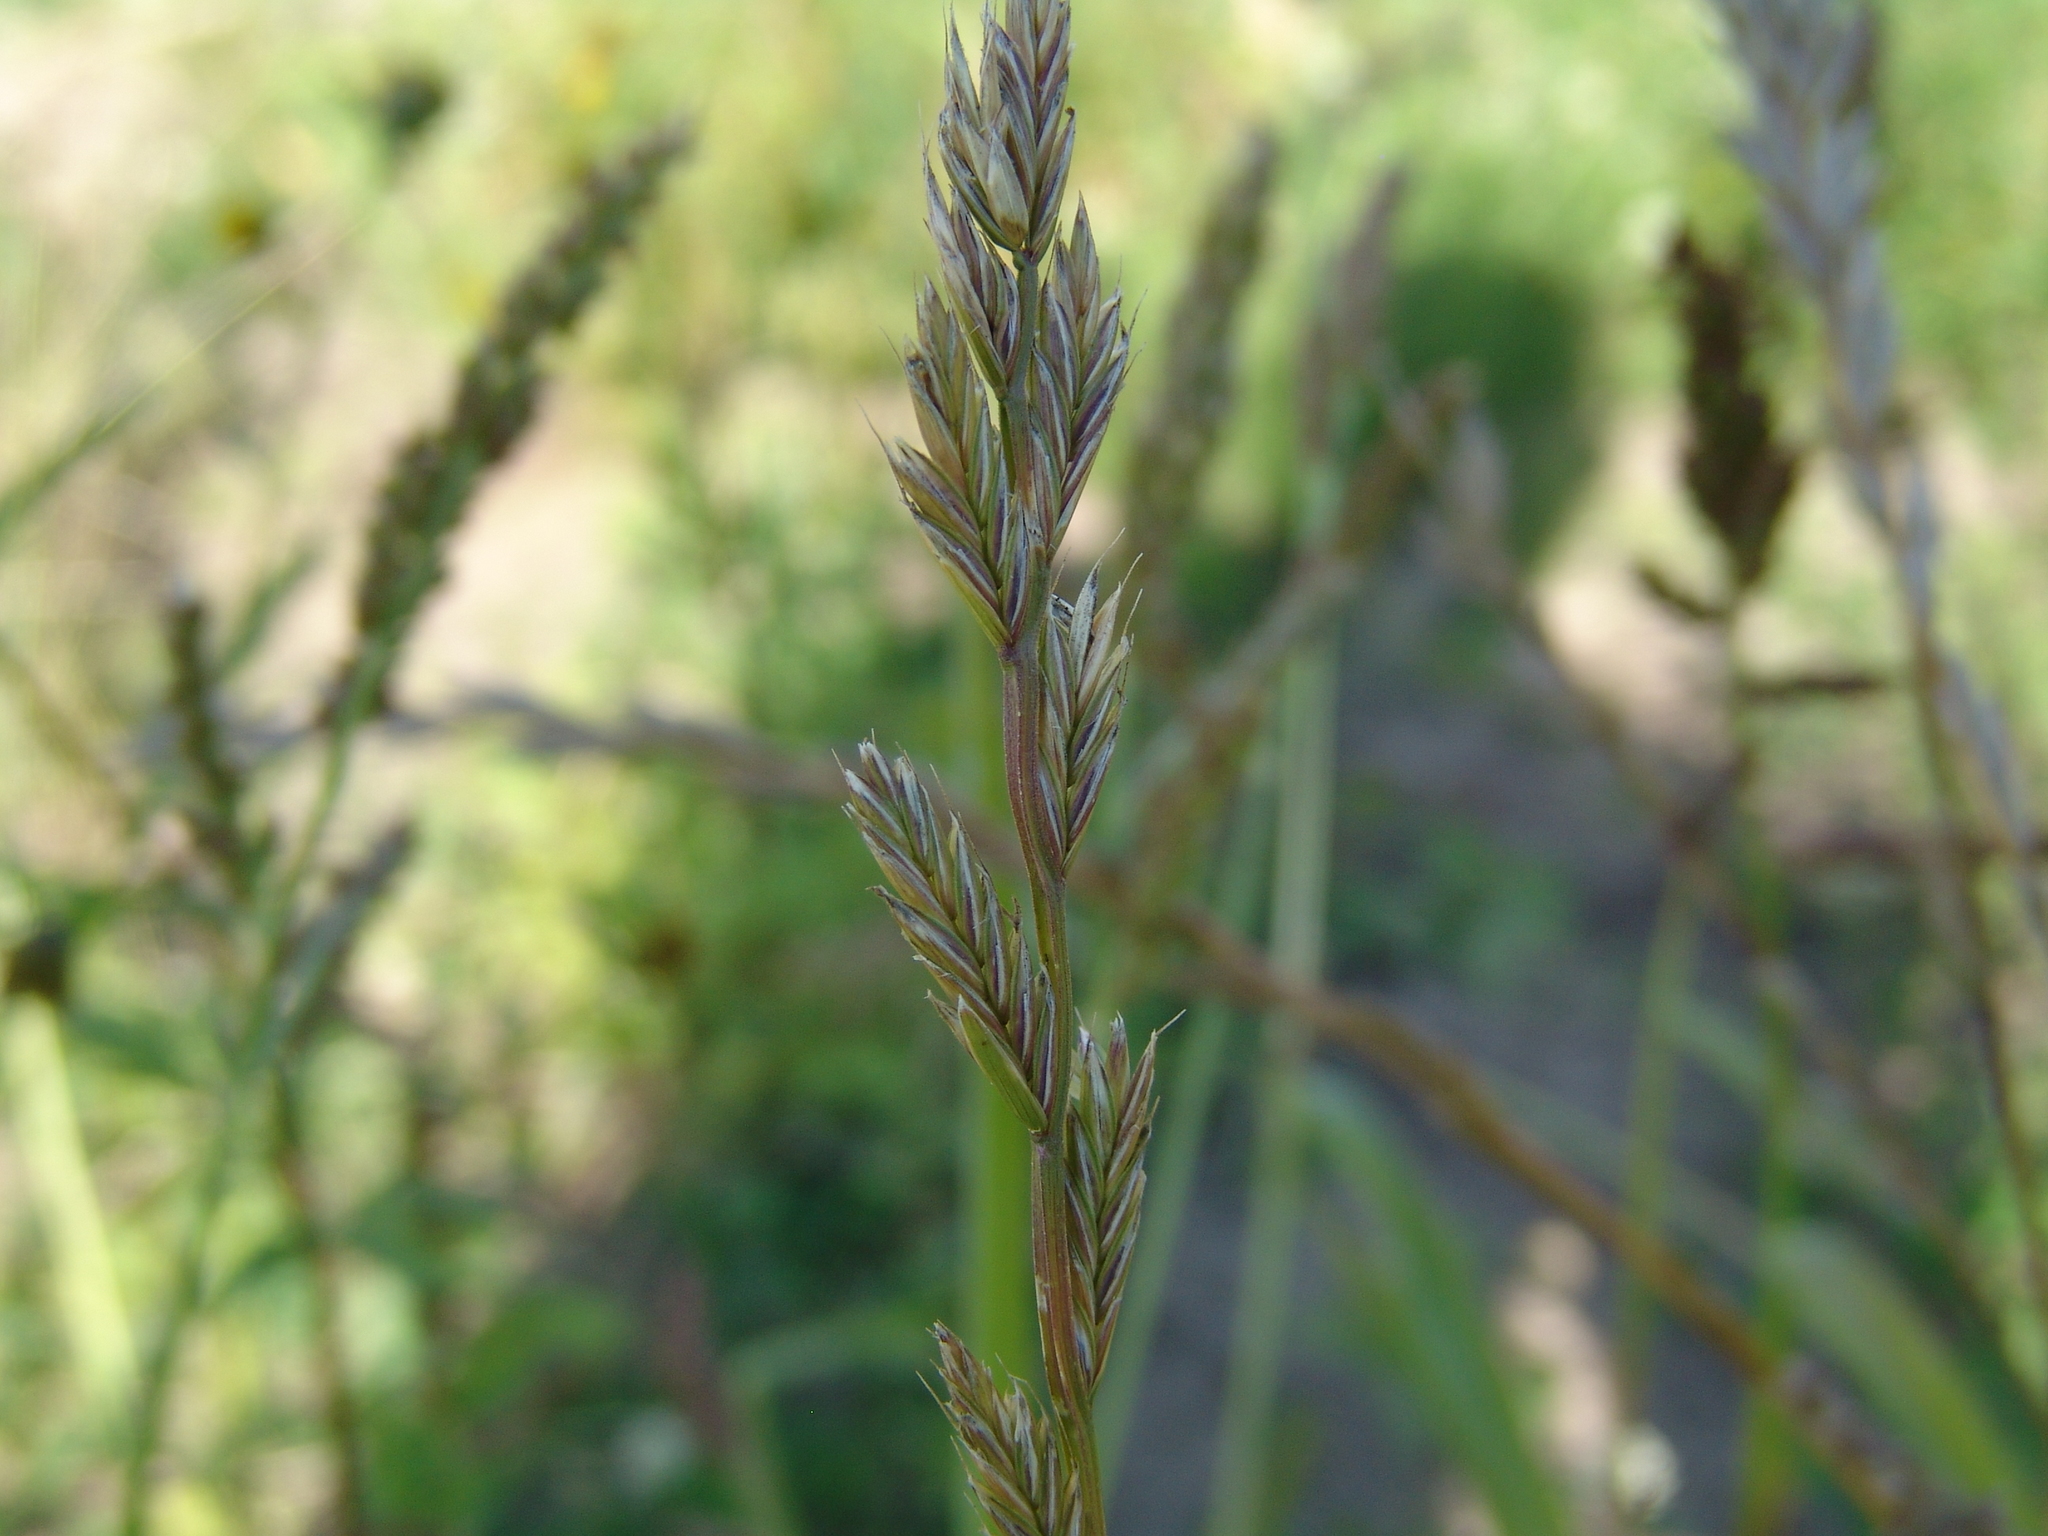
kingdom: Plantae
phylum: Tracheophyta
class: Liliopsida
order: Poales
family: Poaceae
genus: Lolium
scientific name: Lolium multiflorum
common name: Annual ryegrass
